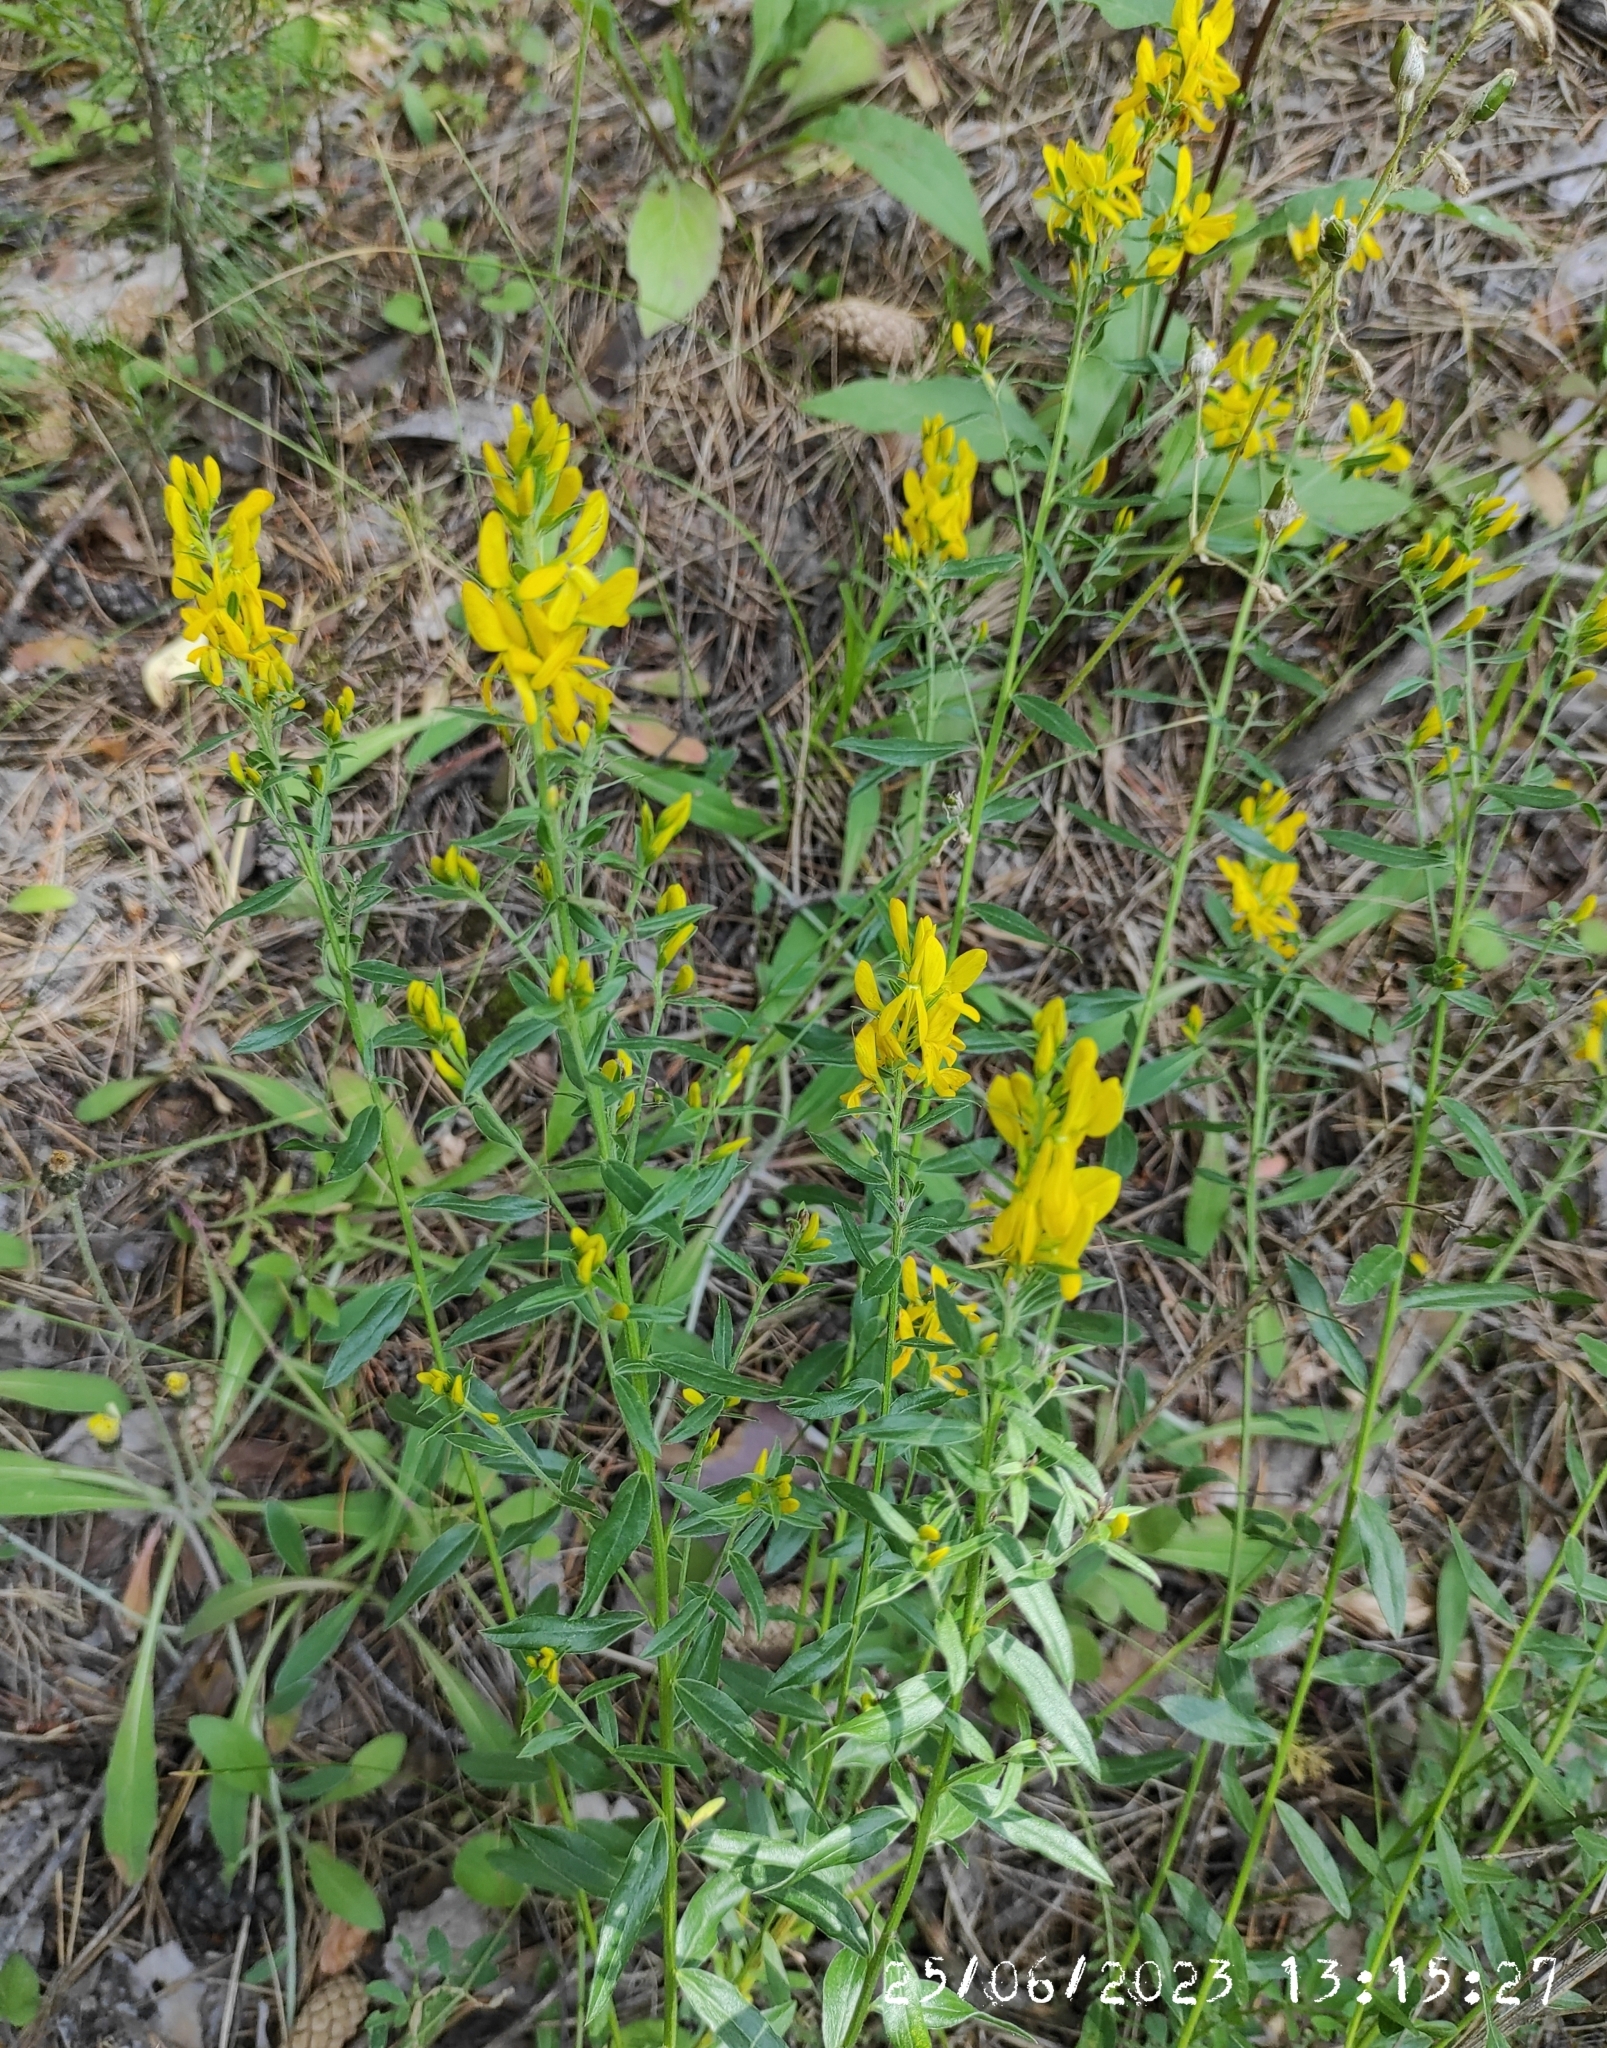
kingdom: Plantae
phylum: Tracheophyta
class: Magnoliopsida
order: Fabales
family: Fabaceae
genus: Genista
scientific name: Genista tinctoria
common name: Dyer's greenweed
